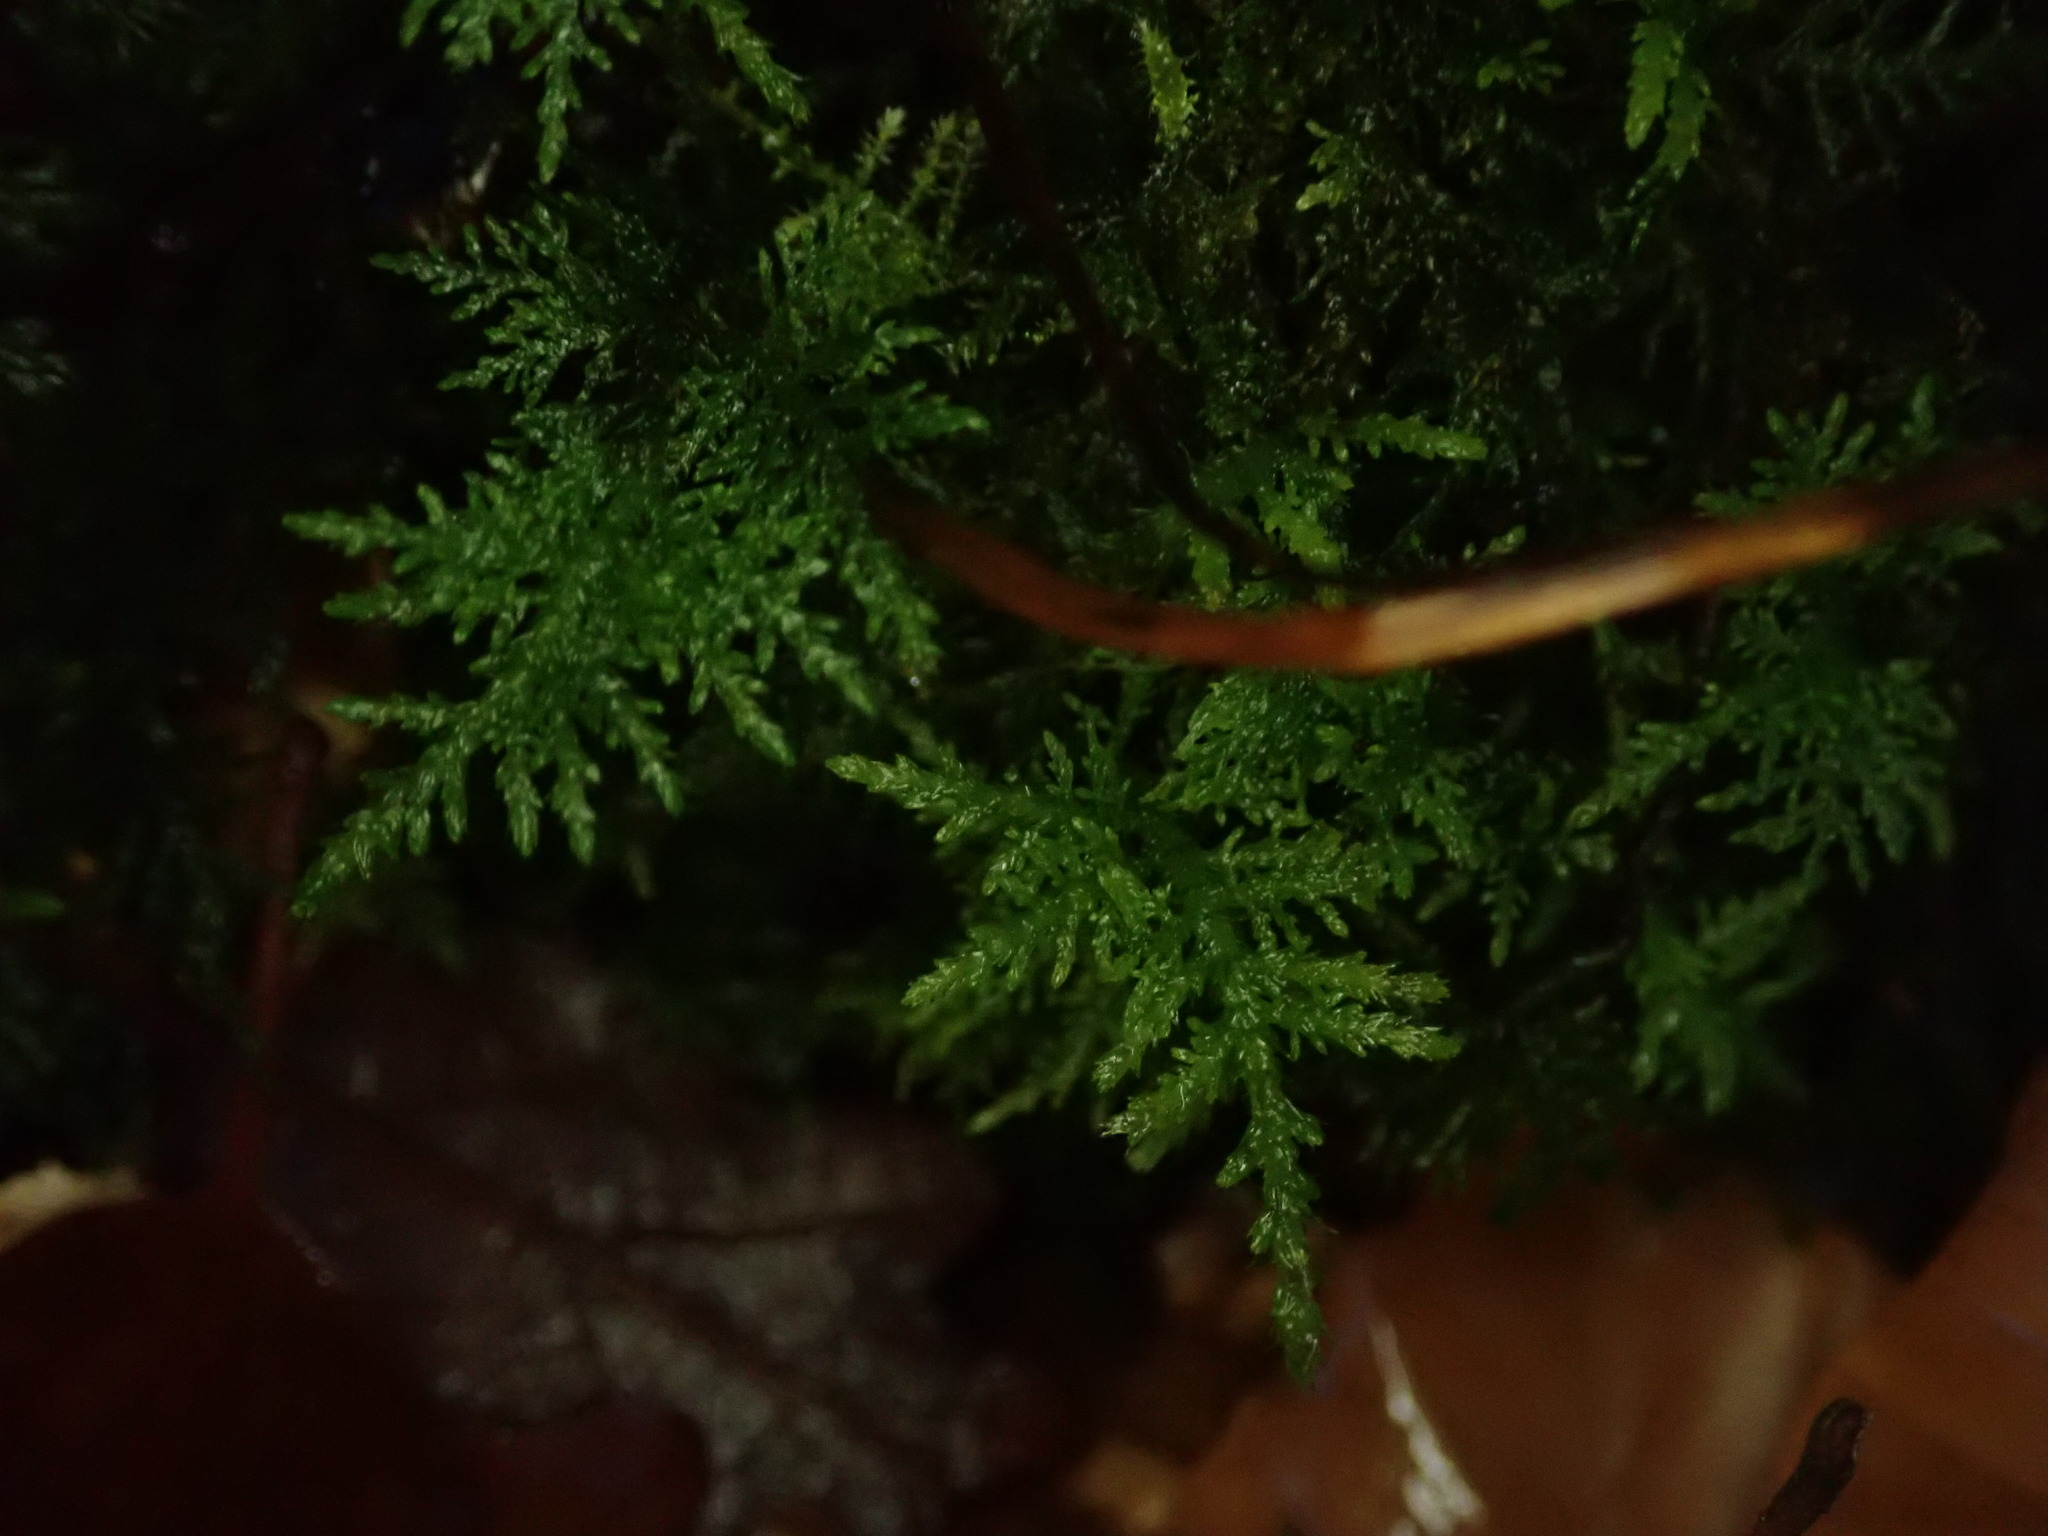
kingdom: Plantae
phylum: Bryophyta
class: Bryopsida
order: Hypnales
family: Thuidiaceae
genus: Thuidium
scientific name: Thuidium tamariscinum
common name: Common tamarisk-moss
